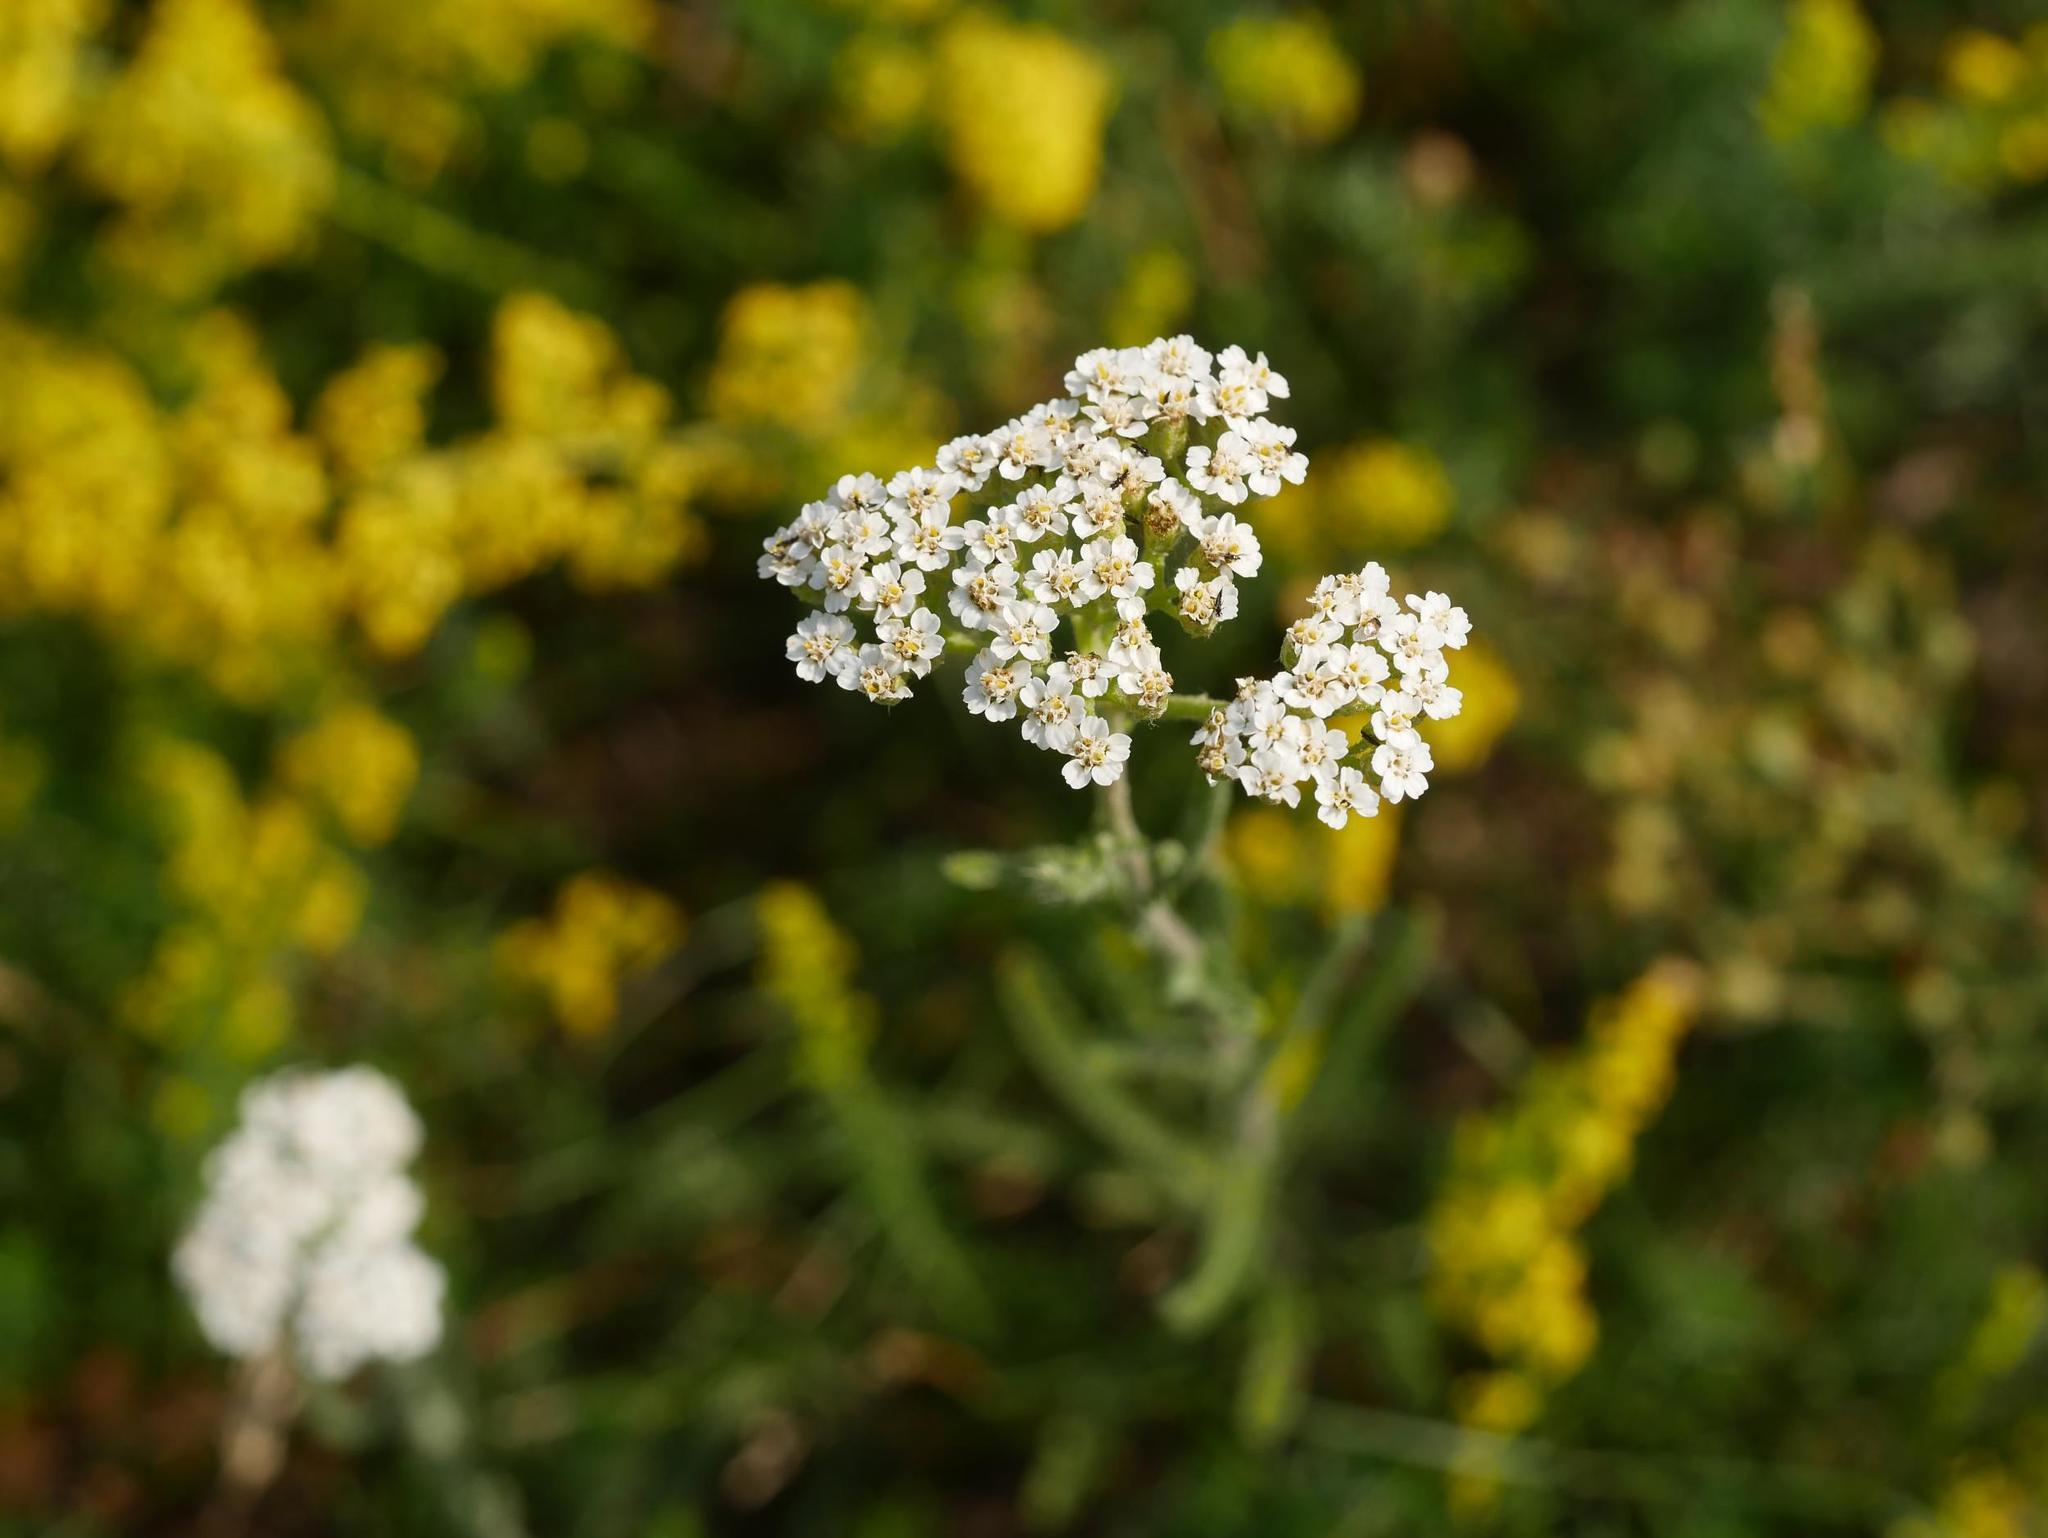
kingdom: Plantae
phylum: Tracheophyta
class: Magnoliopsida
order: Asterales
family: Asteraceae
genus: Achillea
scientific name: Achillea millefolium
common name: Yarrow
